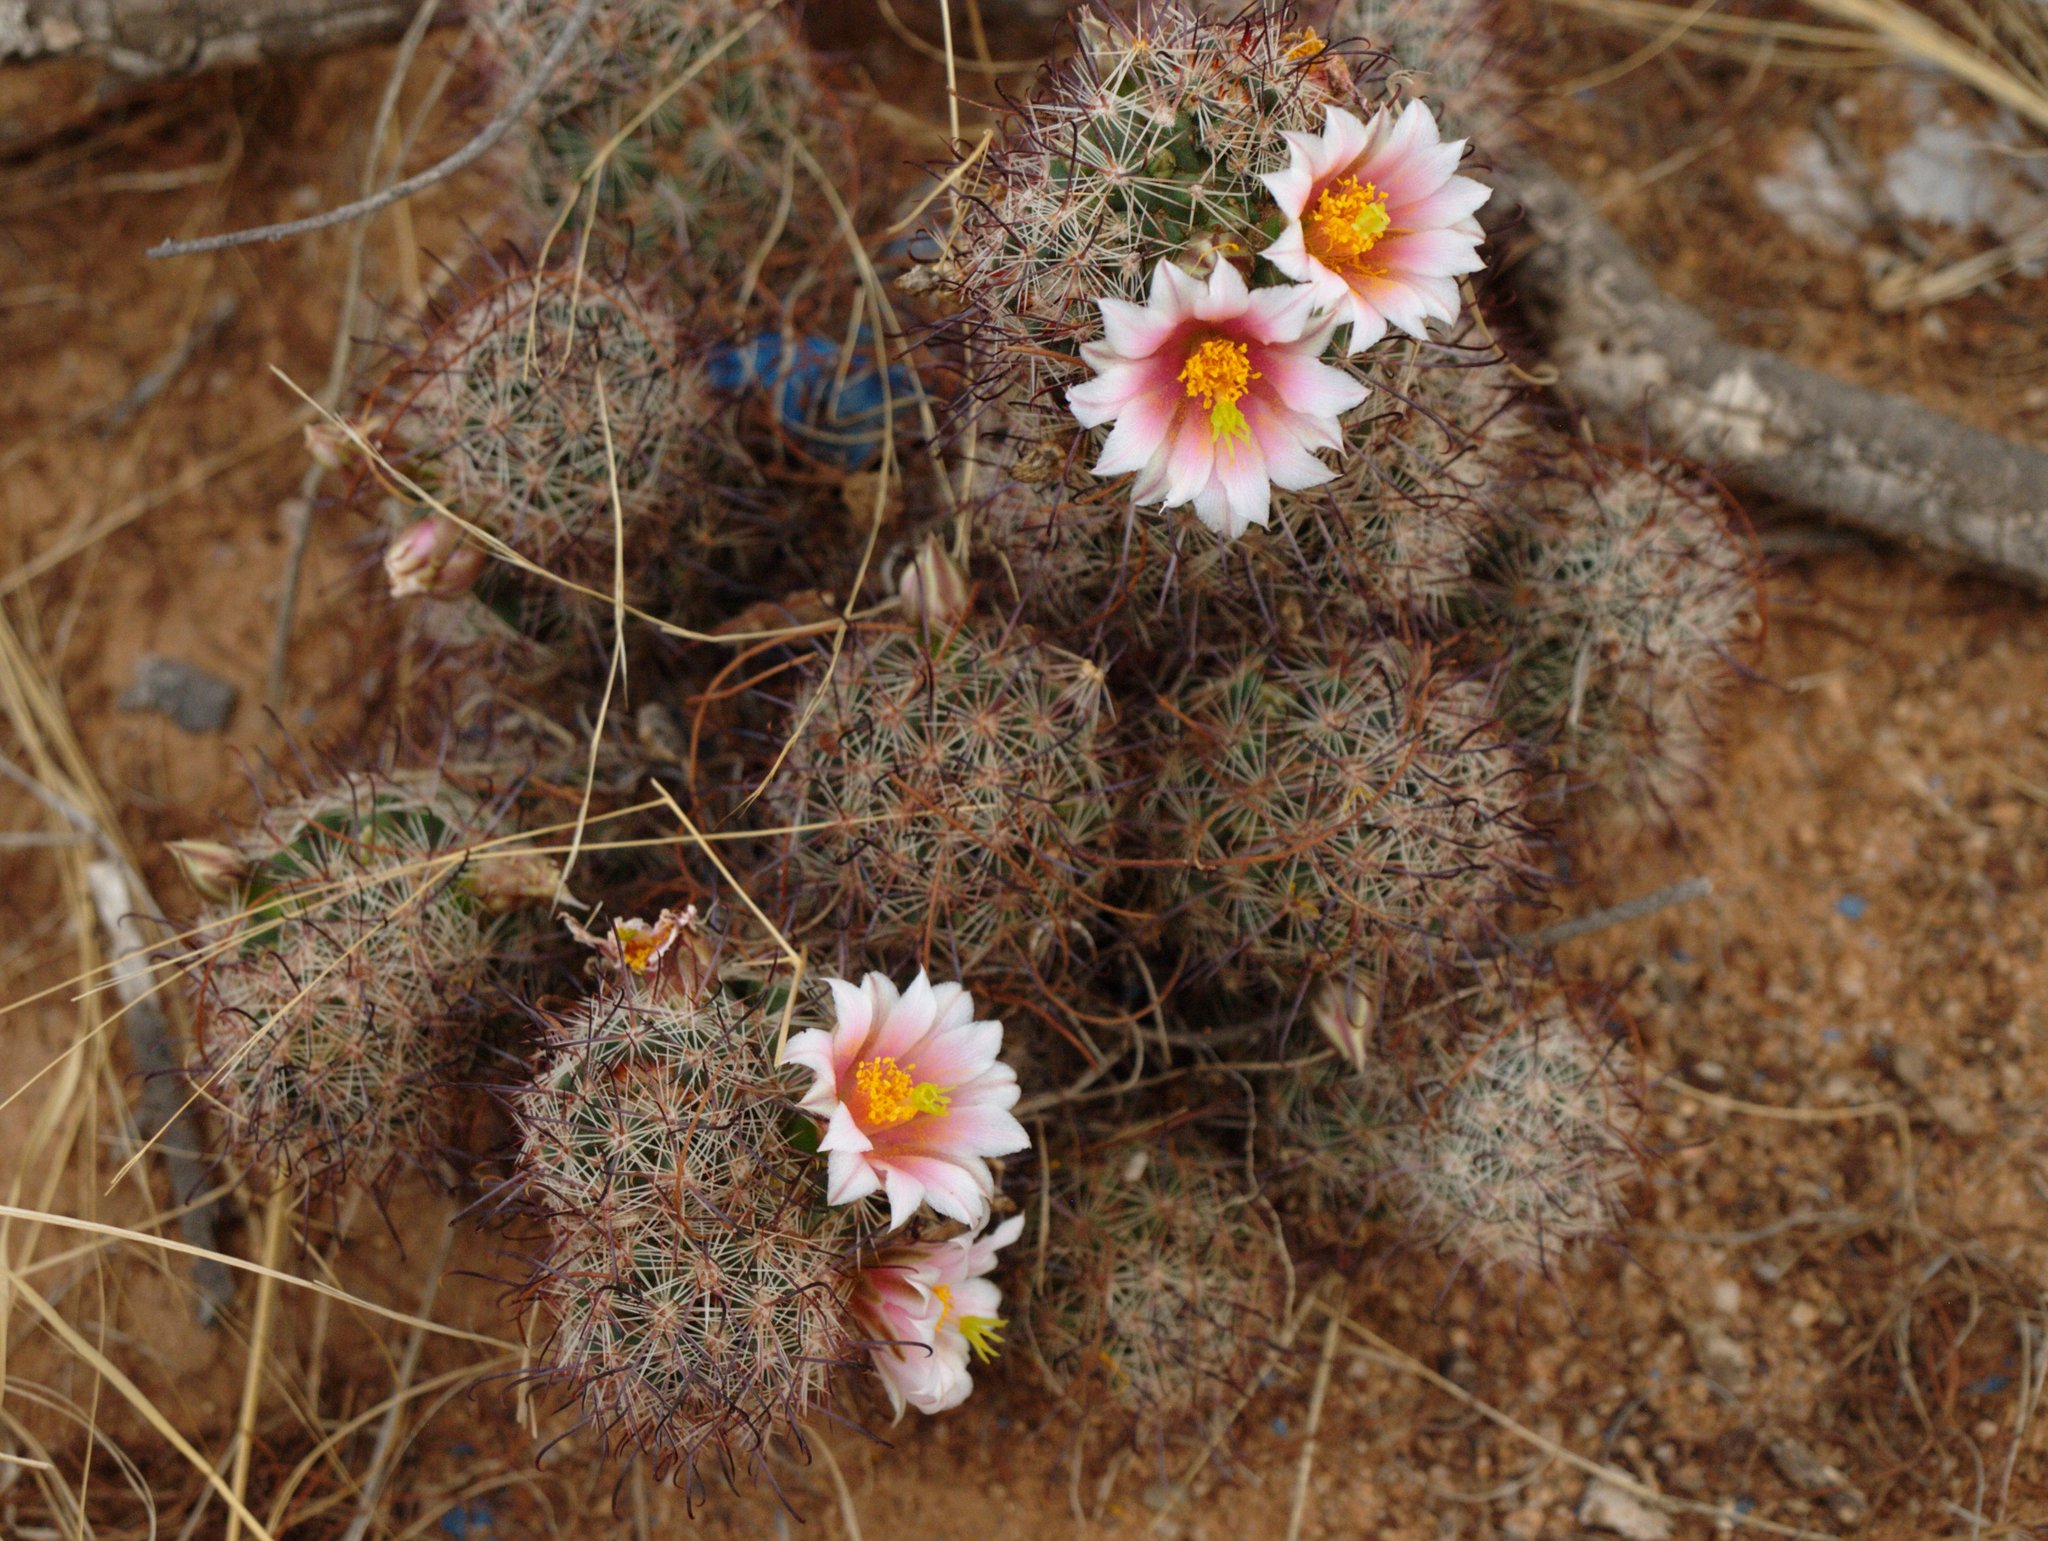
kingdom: Plantae
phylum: Tracheophyta
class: Magnoliopsida
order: Caryophyllales
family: Cactaceae
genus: Cochemiea
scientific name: Cochemiea grahamii
